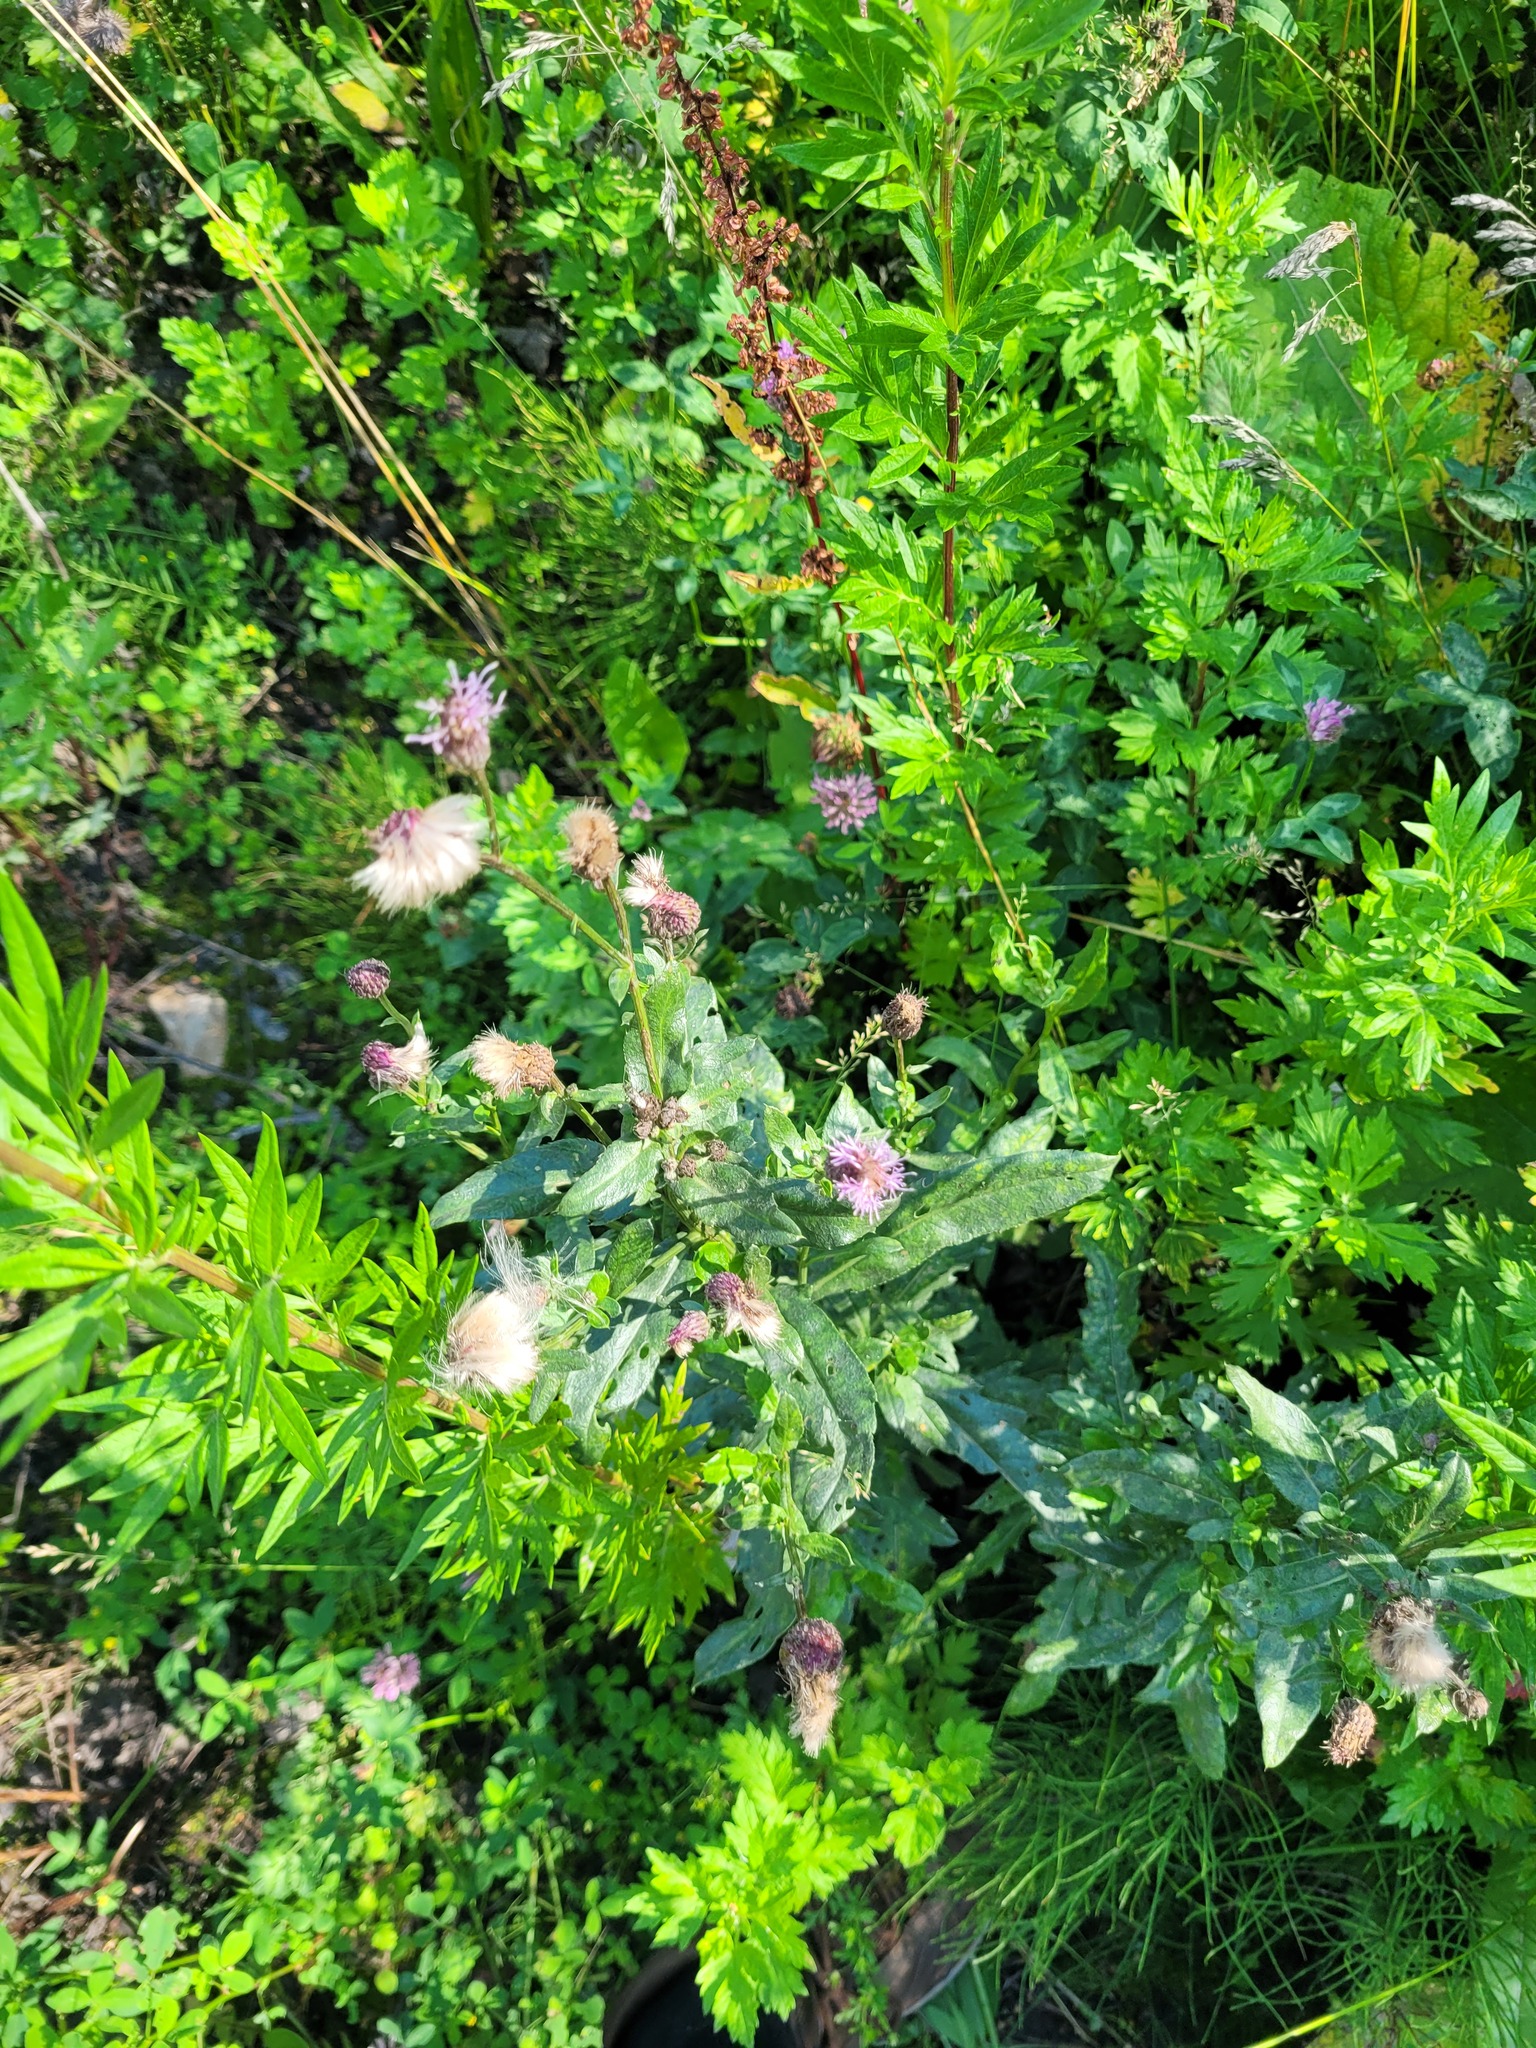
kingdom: Plantae
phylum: Tracheophyta
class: Magnoliopsida
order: Asterales
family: Asteraceae
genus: Cirsium
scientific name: Cirsium arvense
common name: Creeping thistle
